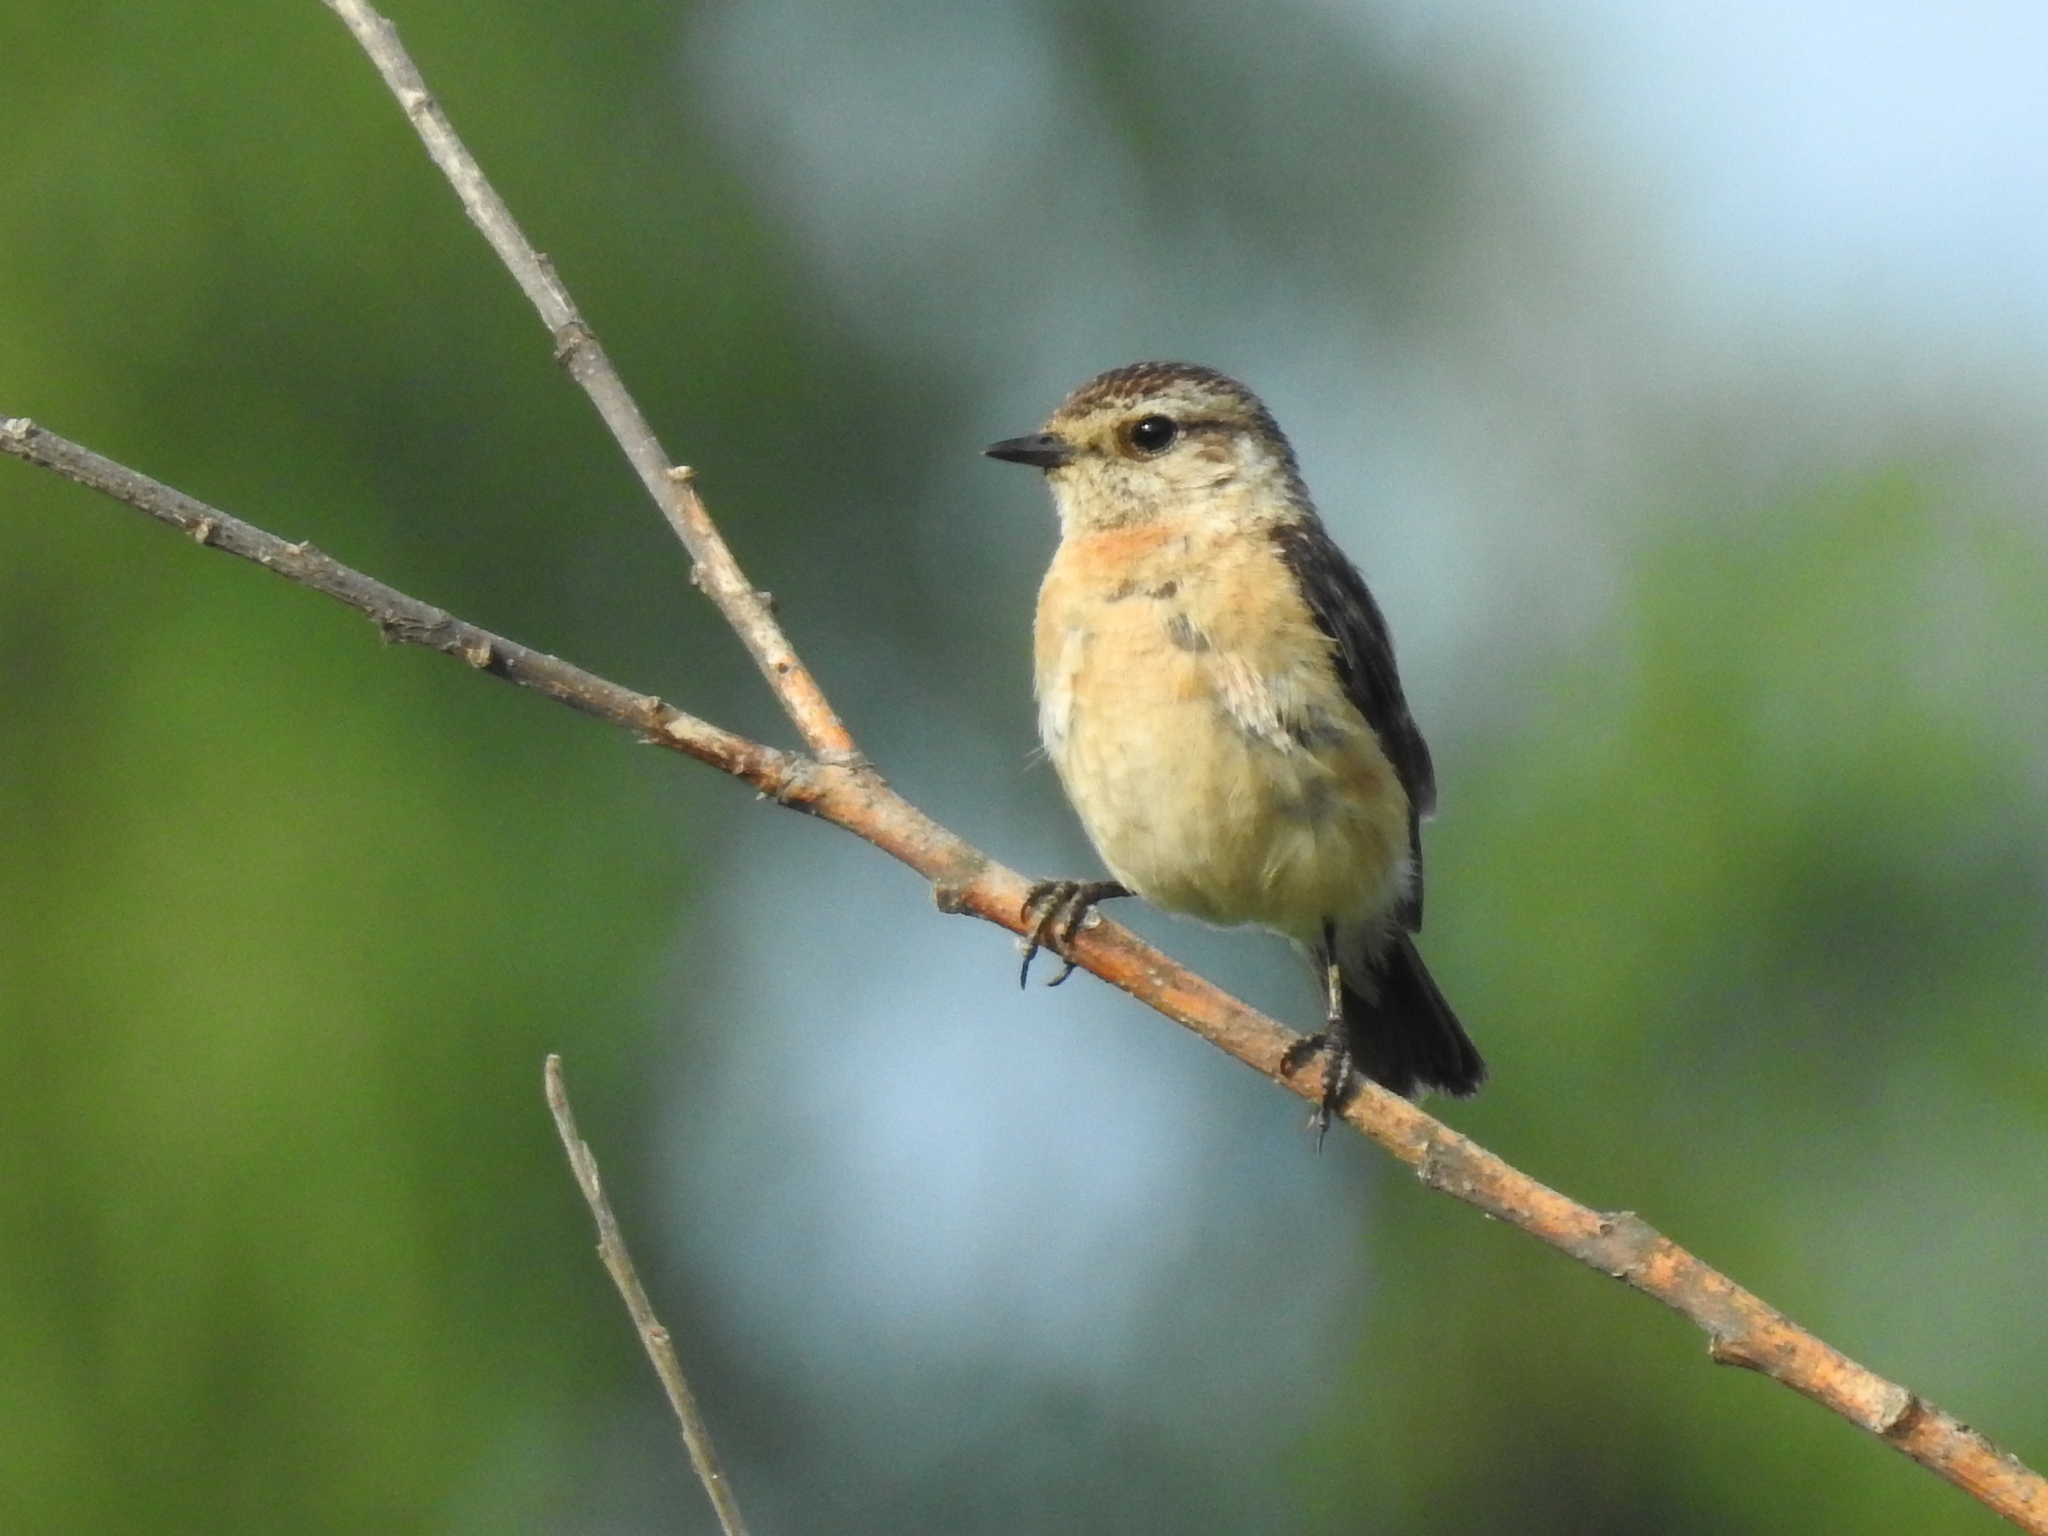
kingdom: Animalia
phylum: Chordata
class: Aves
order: Passeriformes
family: Muscicapidae
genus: Saxicola
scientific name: Saxicola maurus
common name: Siberian stonechat
